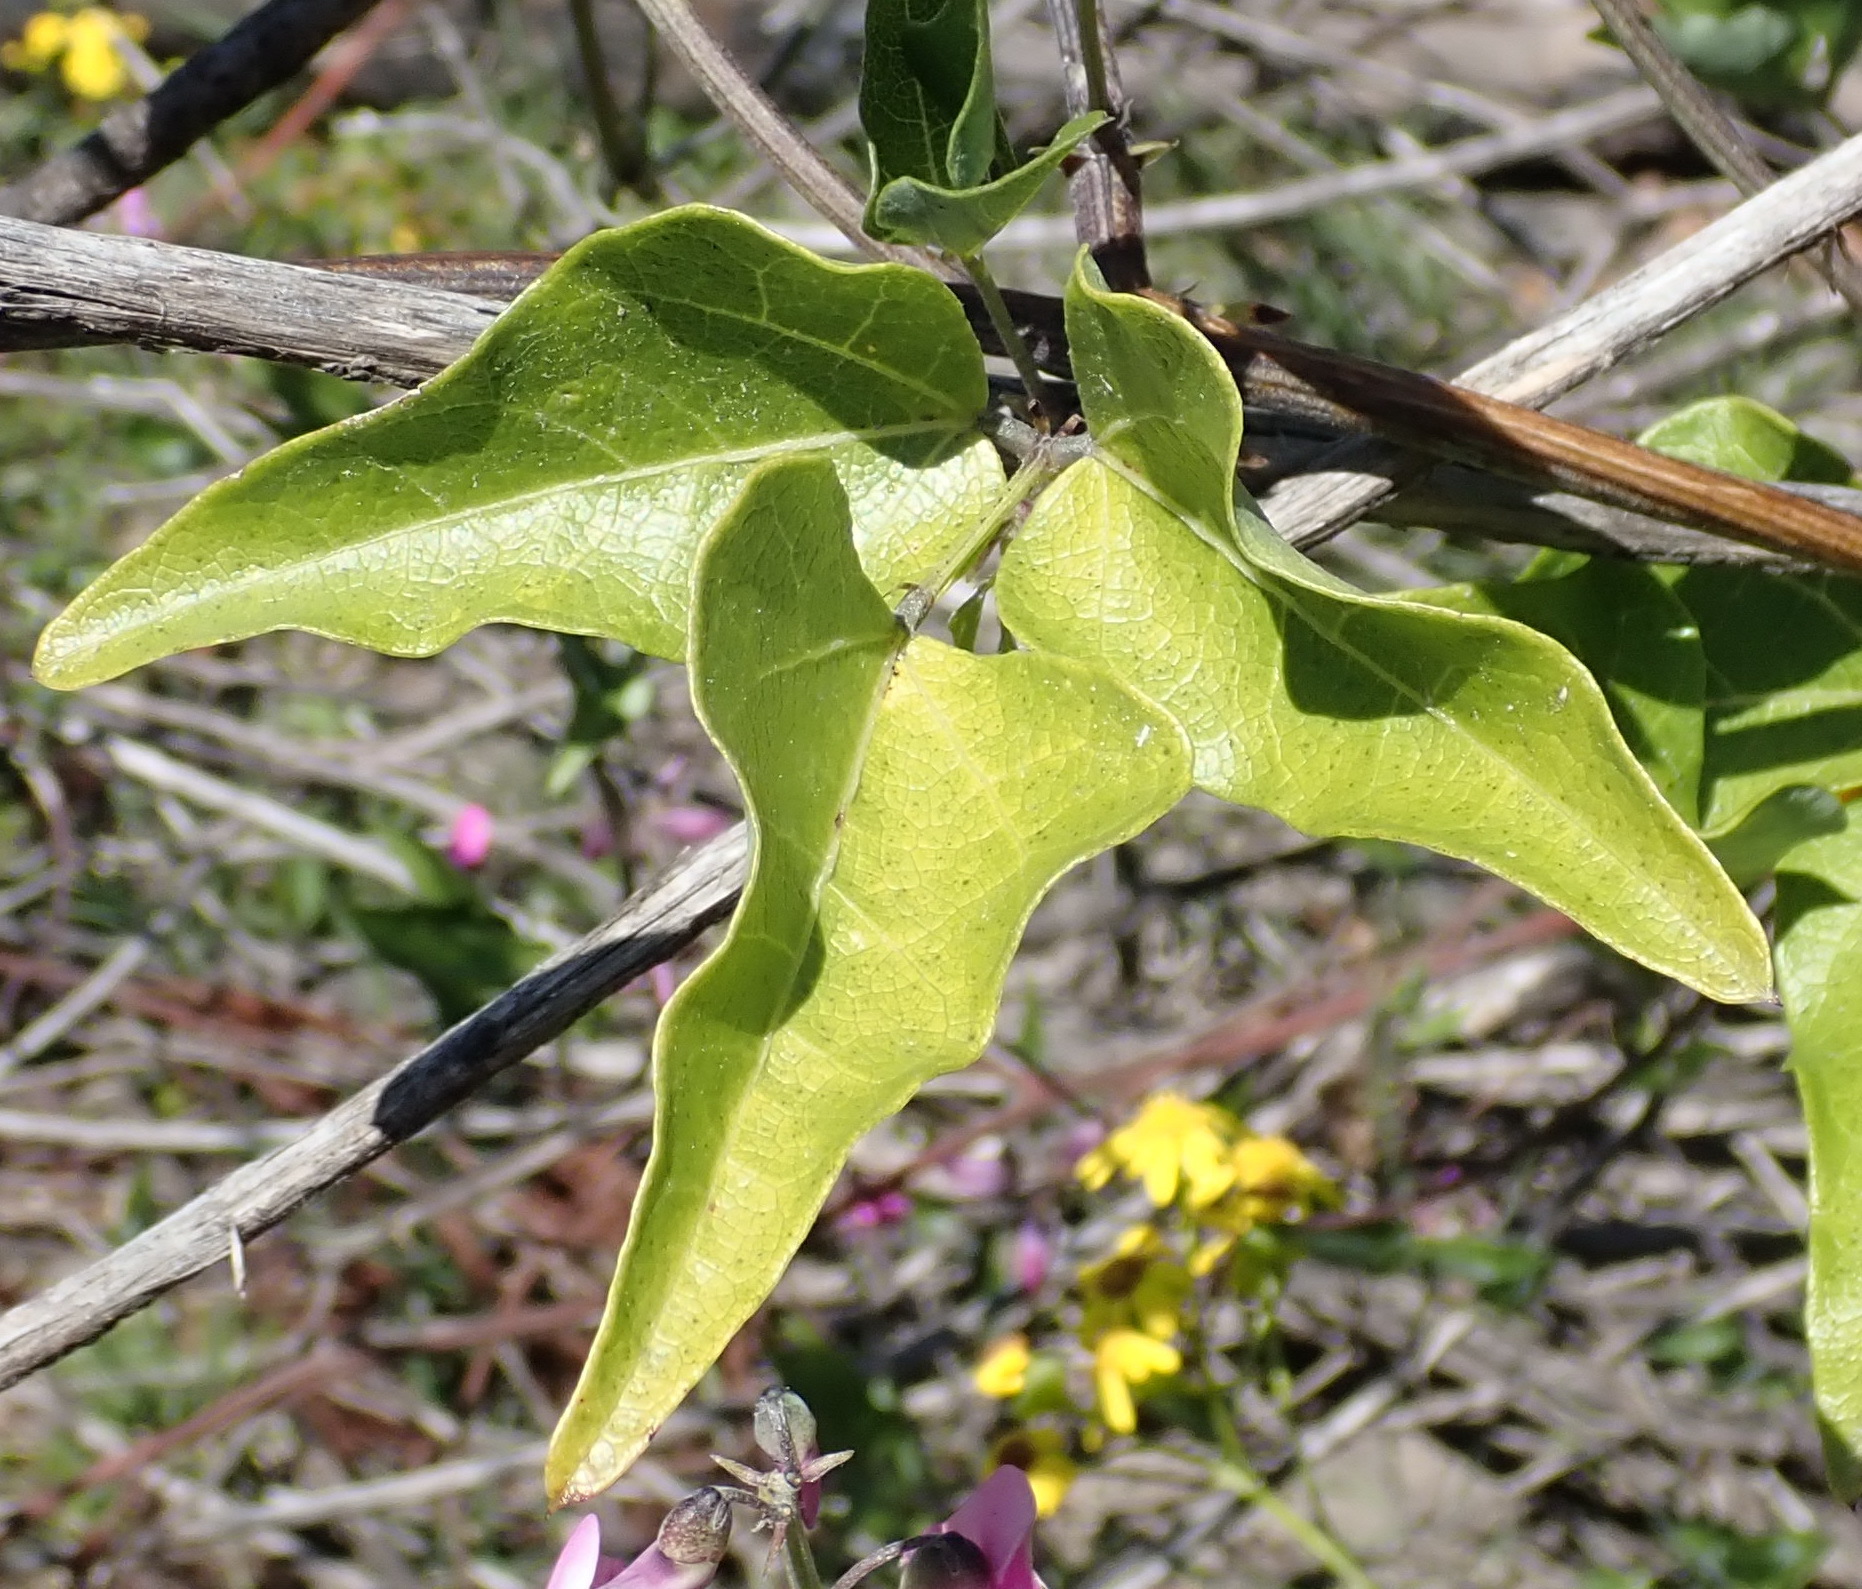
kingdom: Plantae
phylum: Tracheophyta
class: Magnoliopsida
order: Fabales
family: Fabaceae
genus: Dipogon
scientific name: Dipogon lignosus
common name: Okie bean
